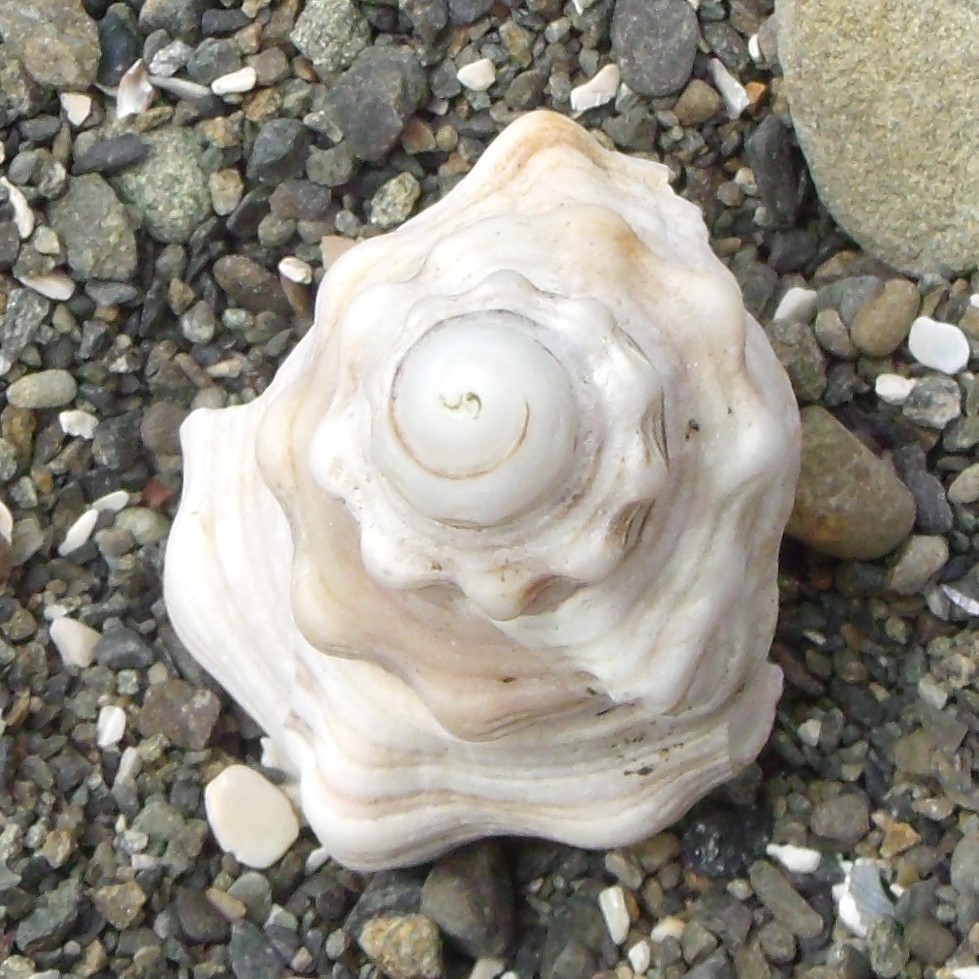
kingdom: Animalia
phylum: Mollusca
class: Gastropoda
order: Littorinimorpha
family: Cymatiidae
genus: Cabestana
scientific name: Cabestana spengleri
